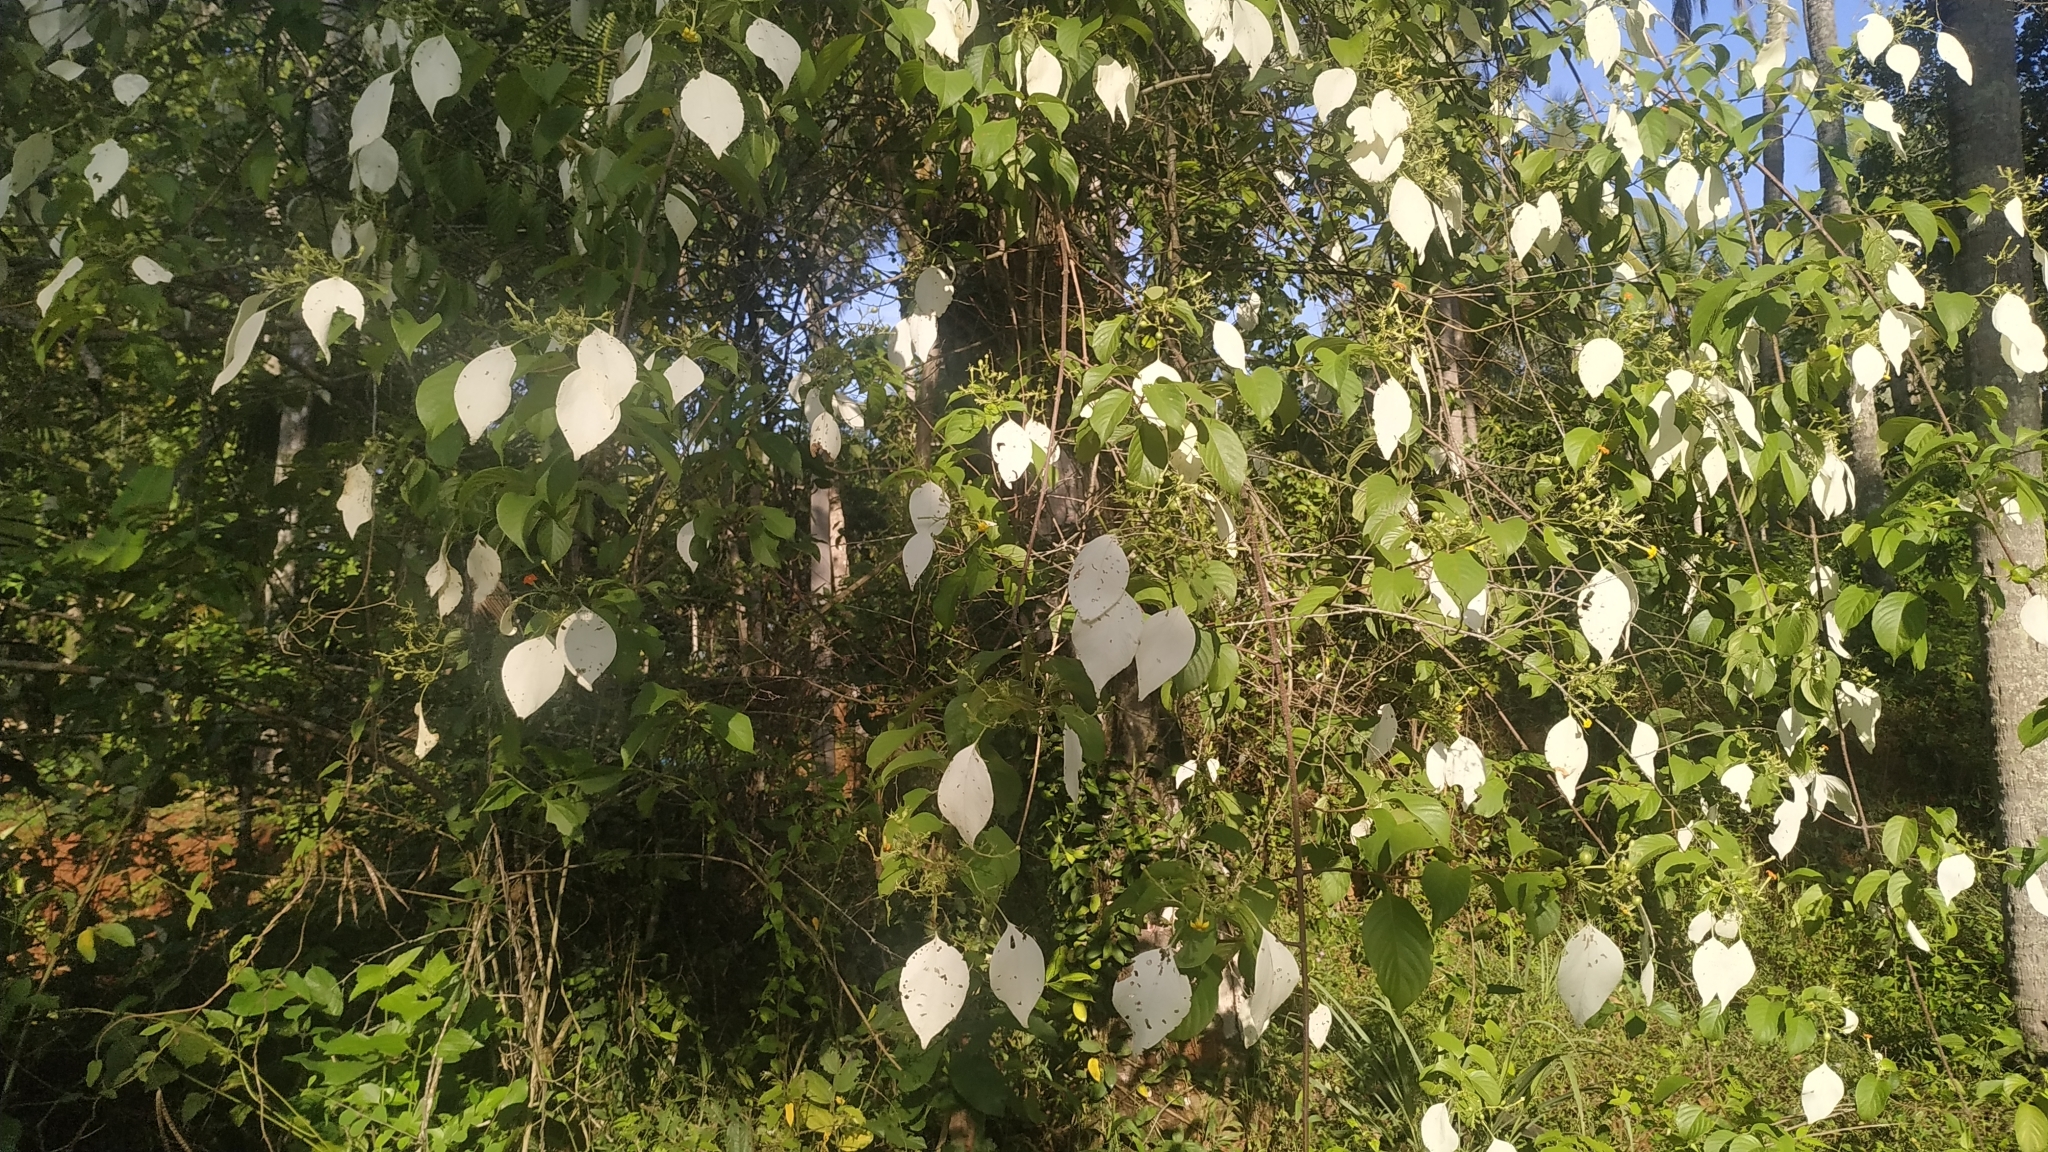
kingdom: Plantae
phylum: Tracheophyta
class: Magnoliopsida
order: Gentianales
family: Rubiaceae
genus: Mussaenda
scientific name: Mussaenda frondosa
